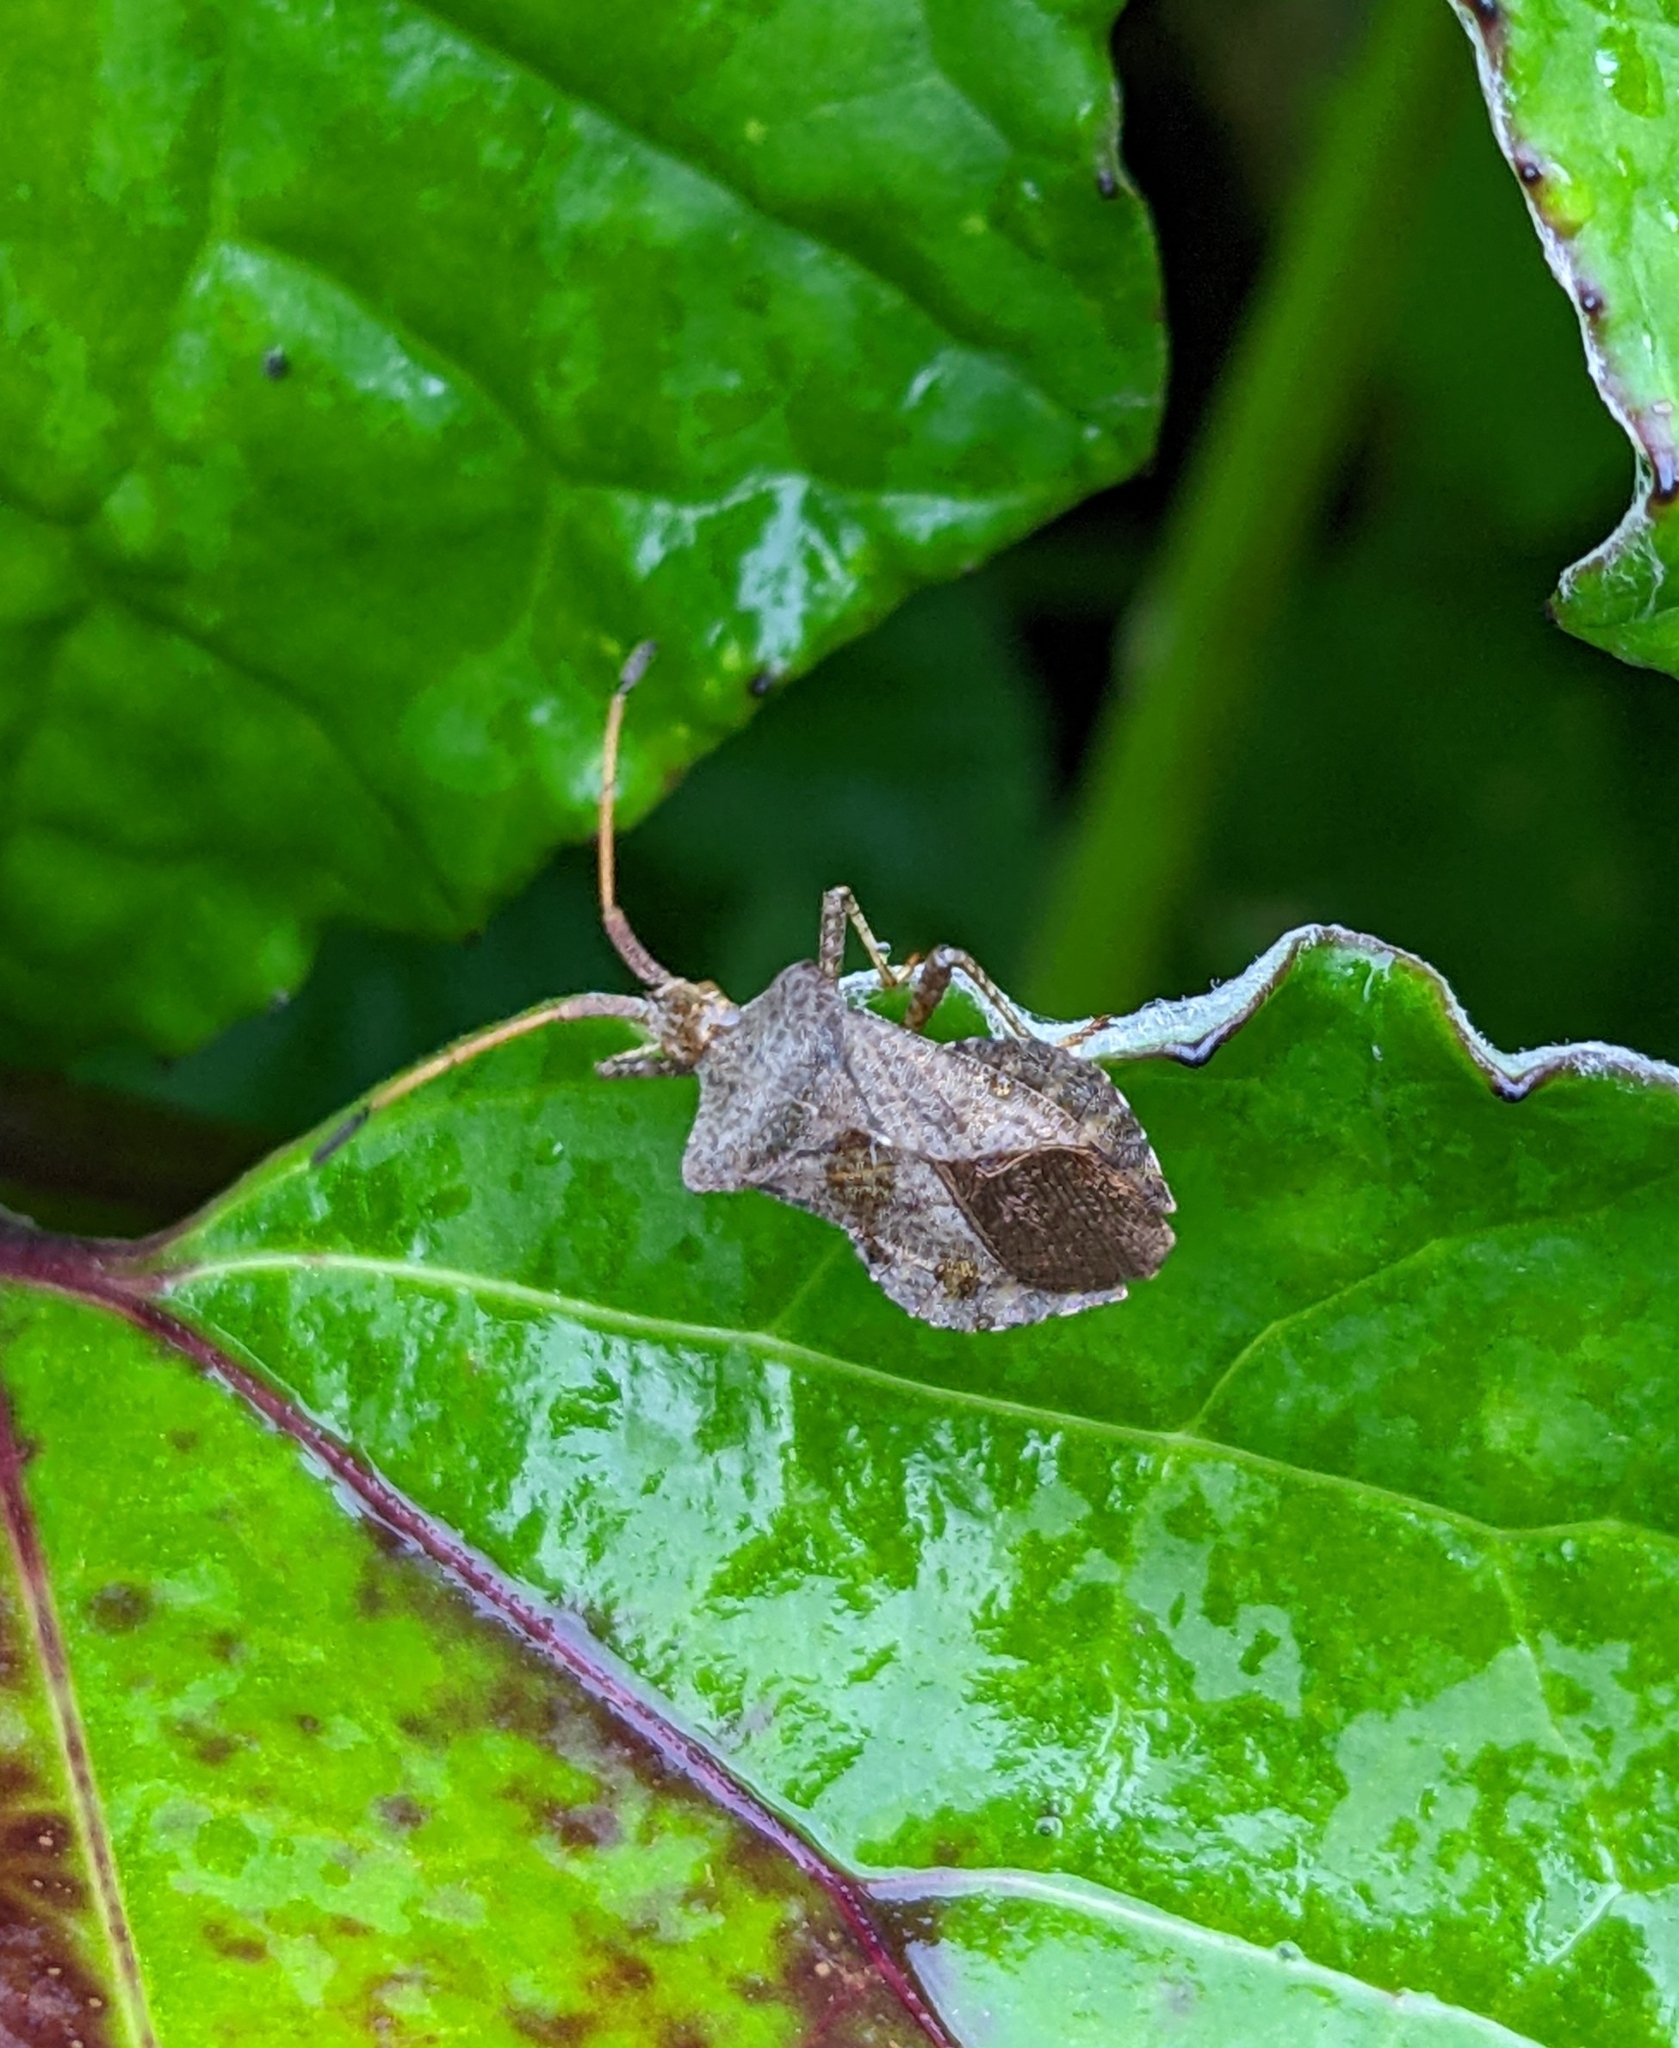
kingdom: Animalia
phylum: Arthropoda
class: Insecta
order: Hemiptera
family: Coreidae
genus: Coreus
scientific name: Coreus marginatus
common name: Dock bug
